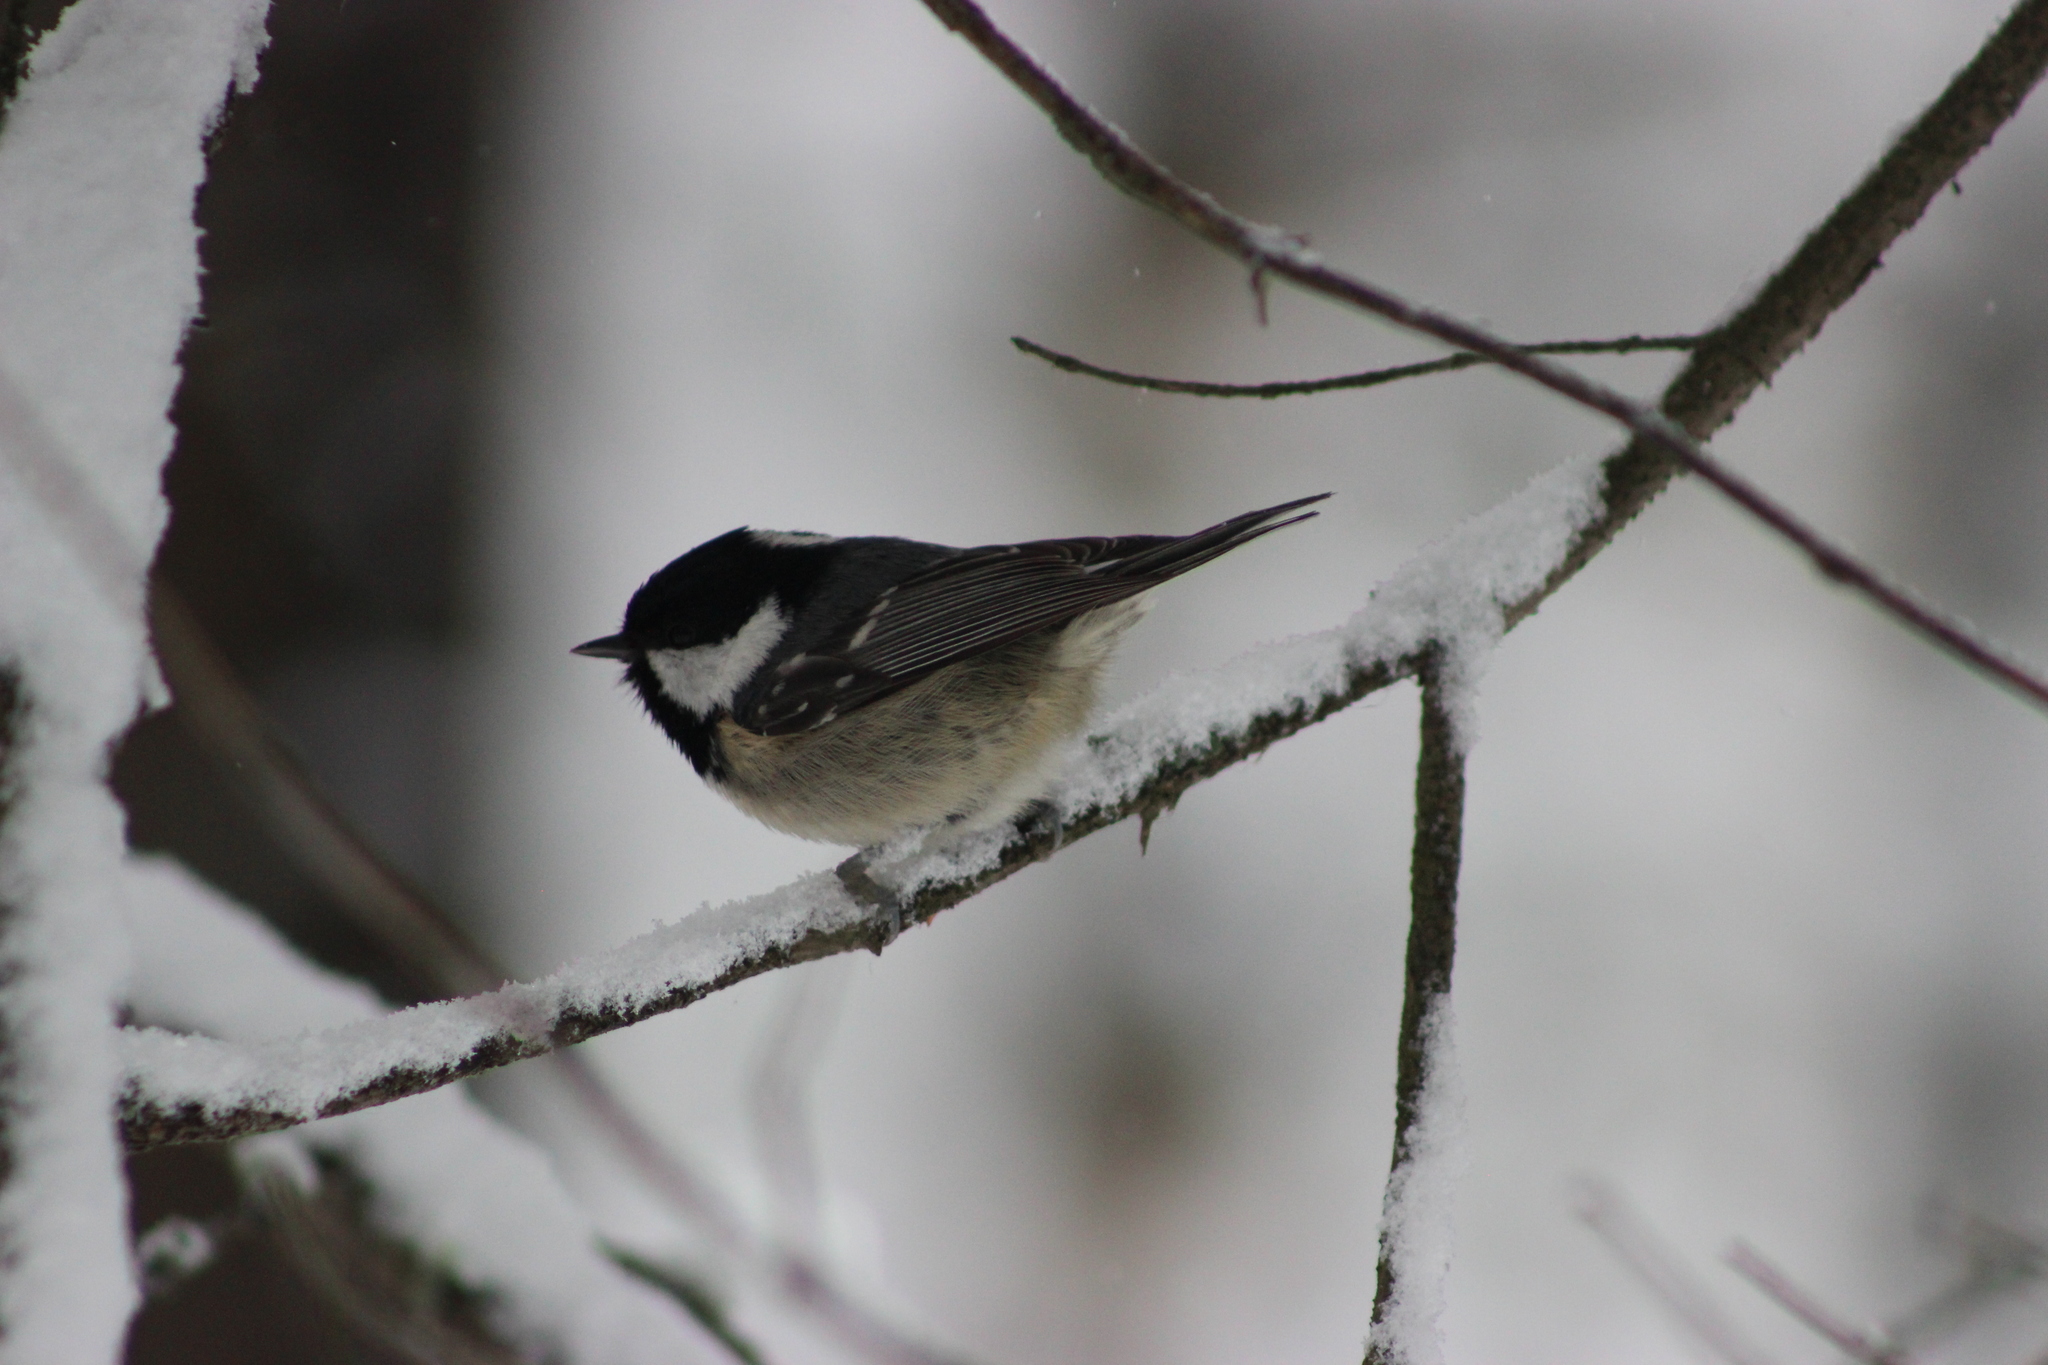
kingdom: Animalia
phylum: Chordata
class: Aves
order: Passeriformes
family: Paridae
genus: Periparus
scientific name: Periparus ater
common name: Coal tit
